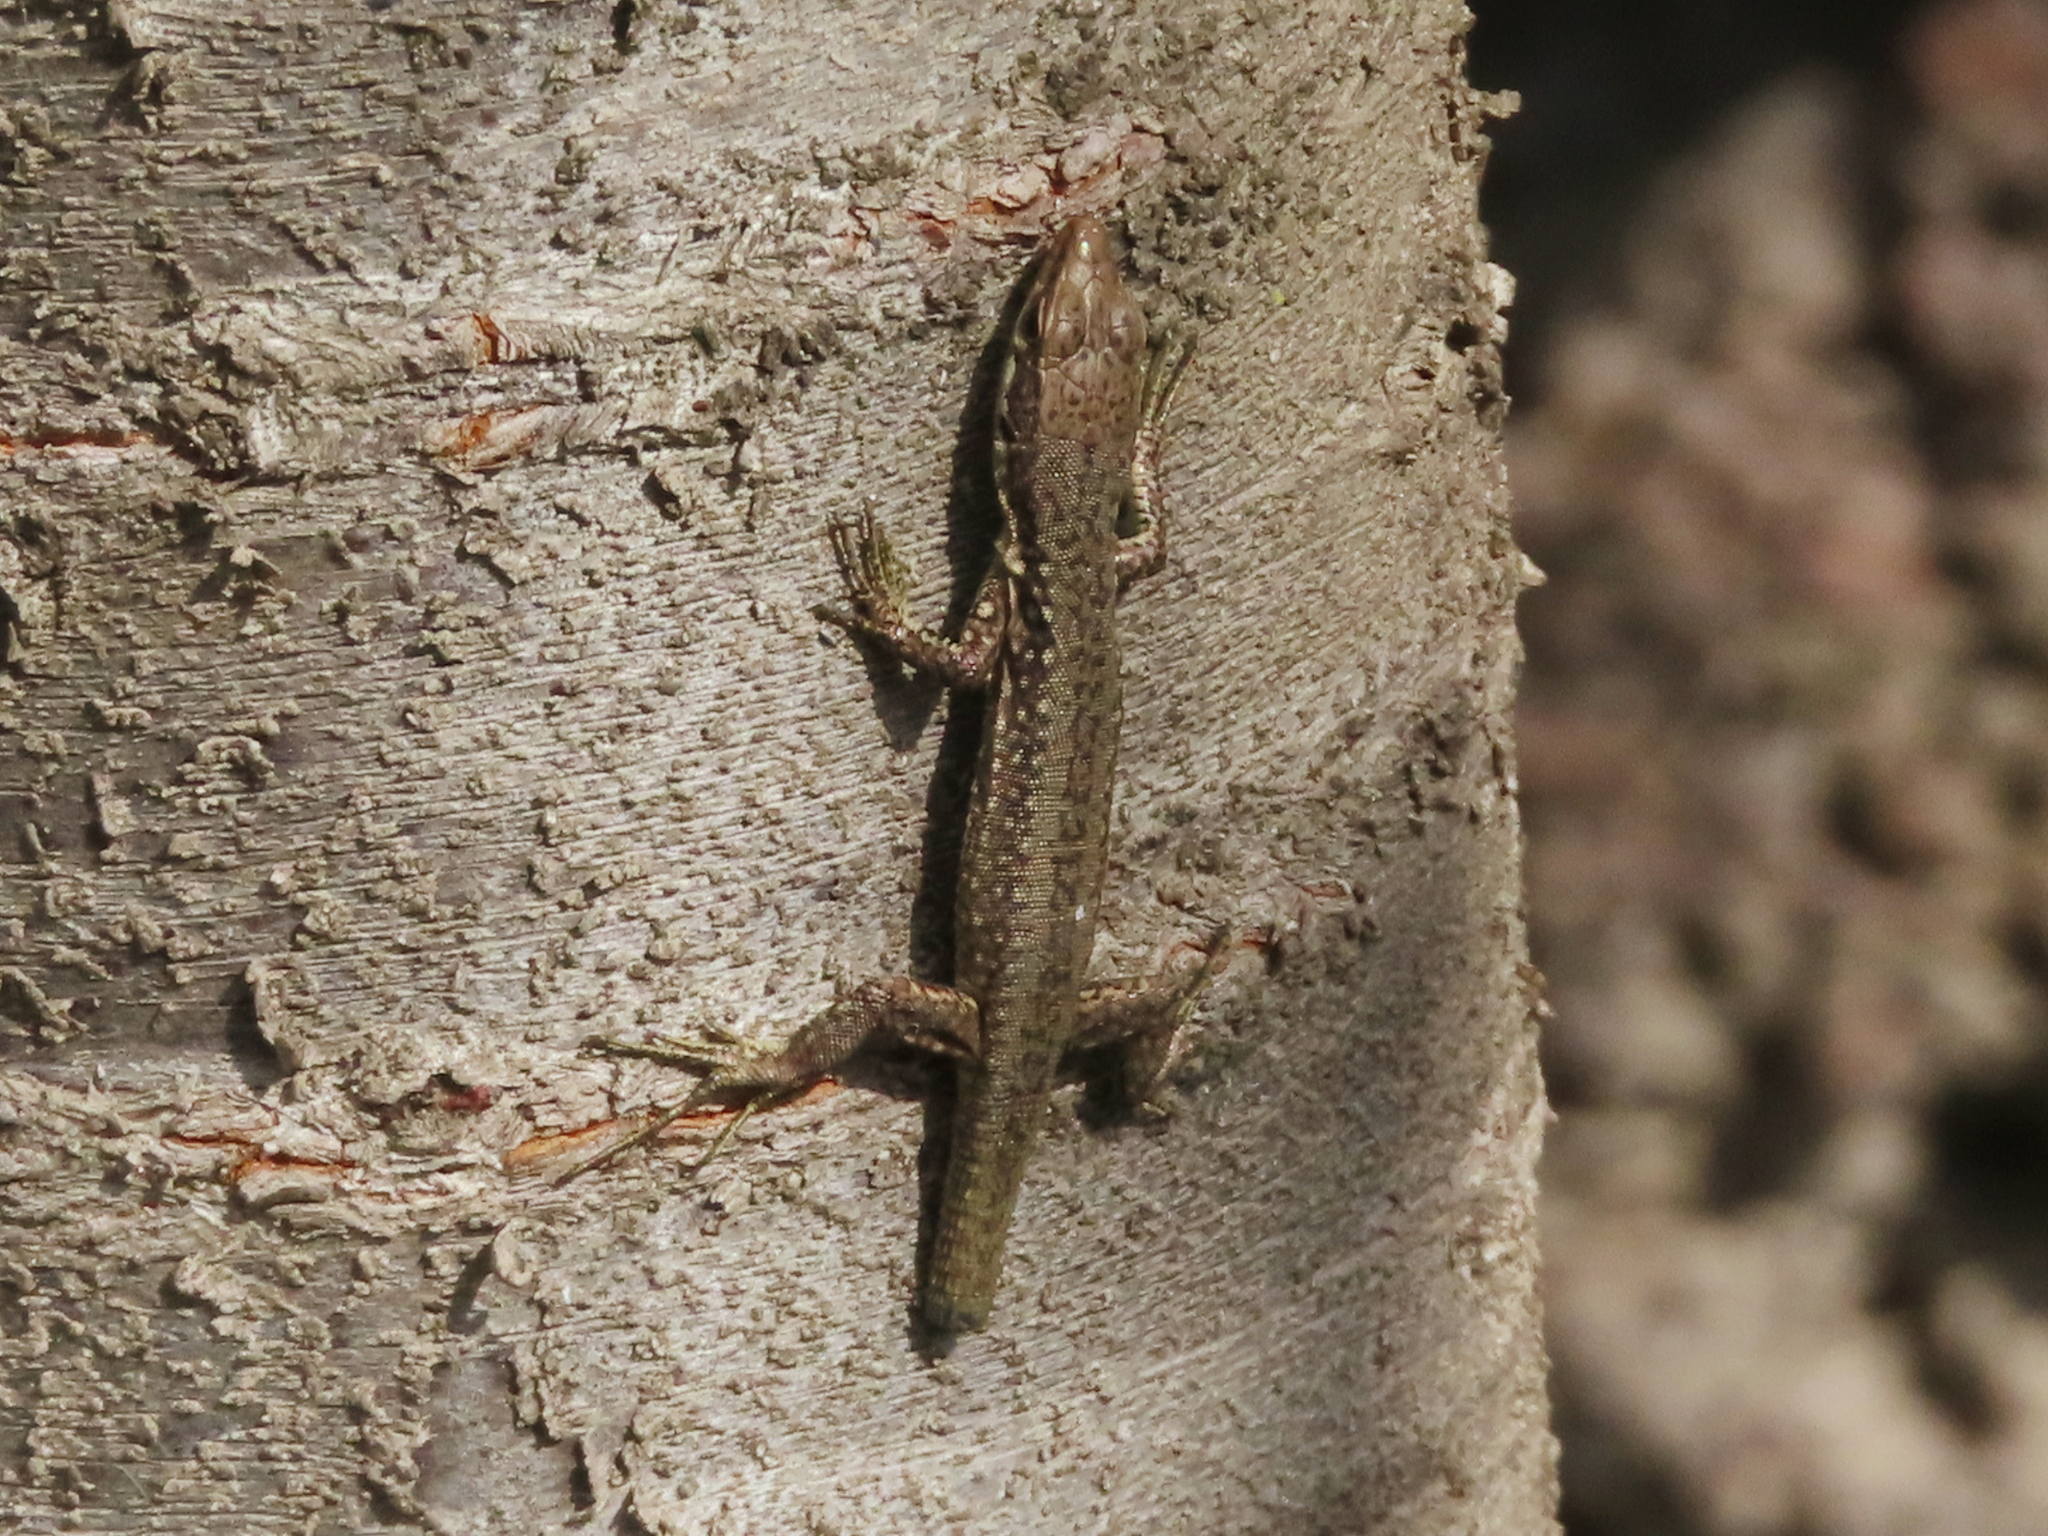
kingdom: Animalia
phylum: Chordata
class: Squamata
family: Lacertidae
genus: Darevskia
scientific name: Darevskia raddei
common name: Radde's lizard
